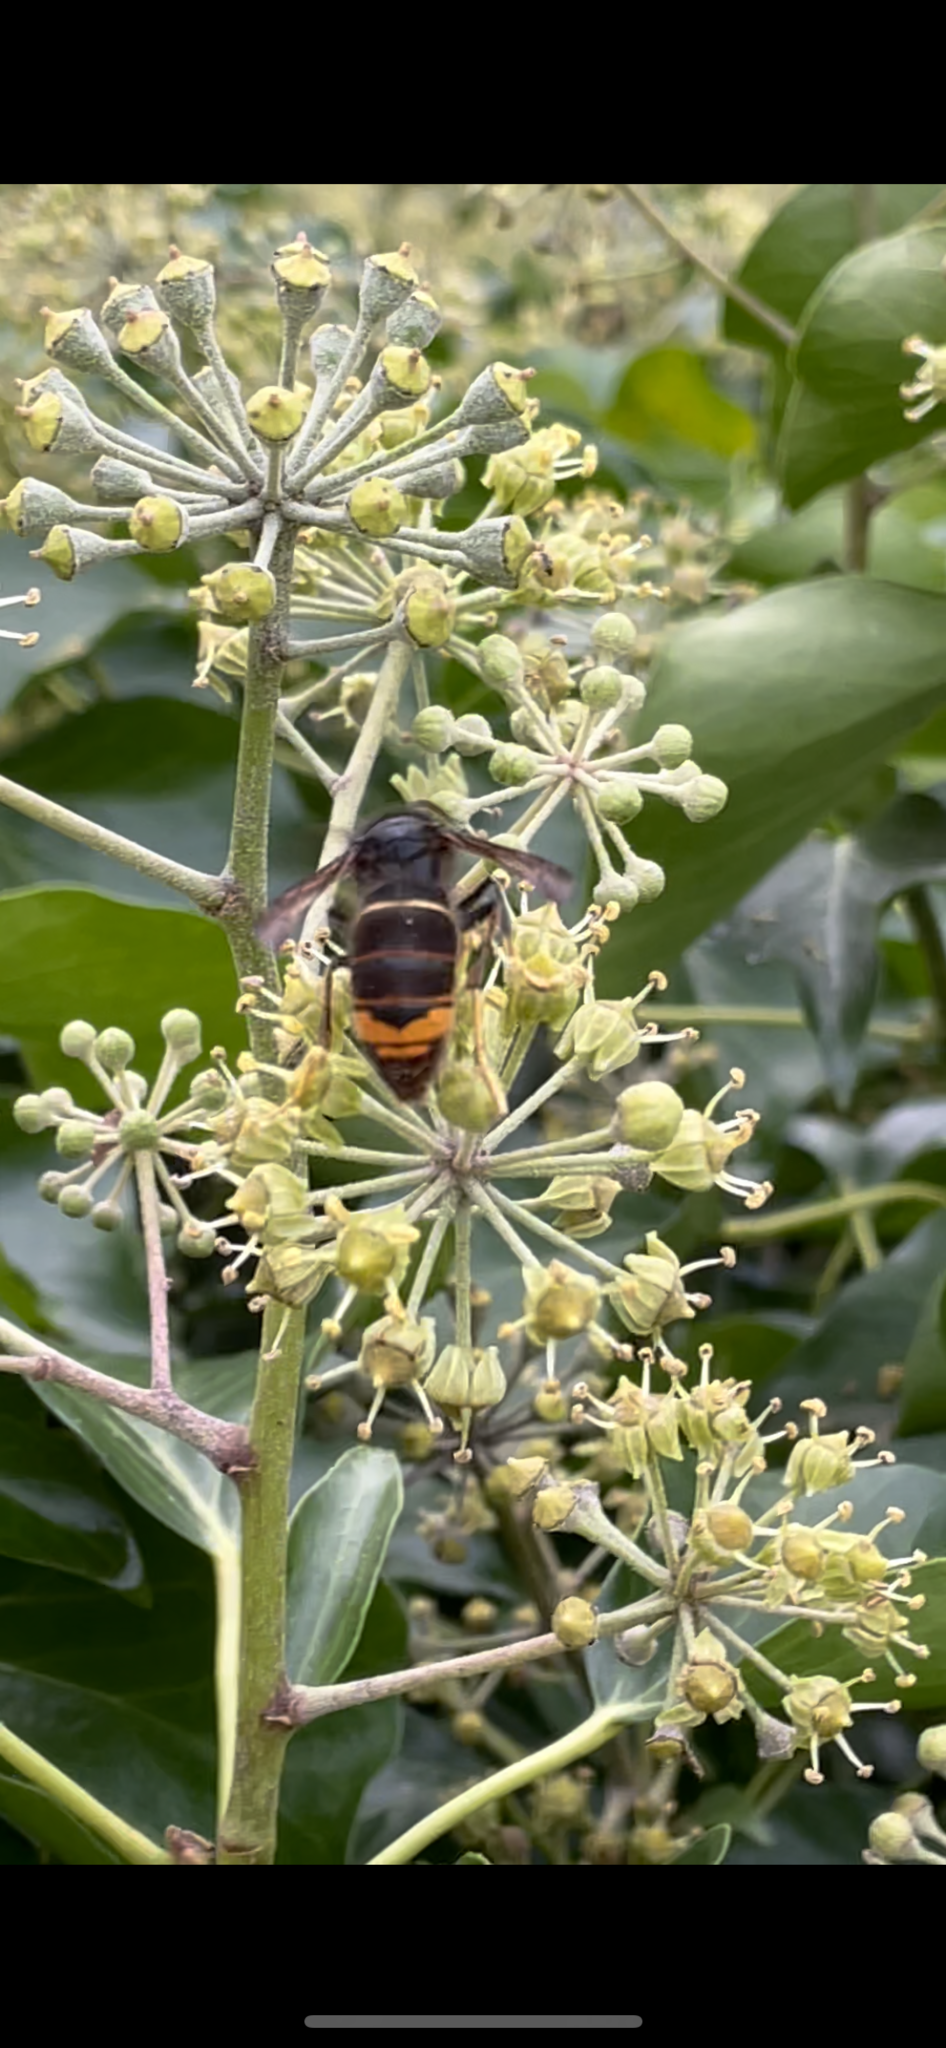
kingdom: Animalia
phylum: Arthropoda
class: Insecta
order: Hymenoptera
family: Vespidae
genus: Vespa
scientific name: Vespa velutina
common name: Asian hornet
